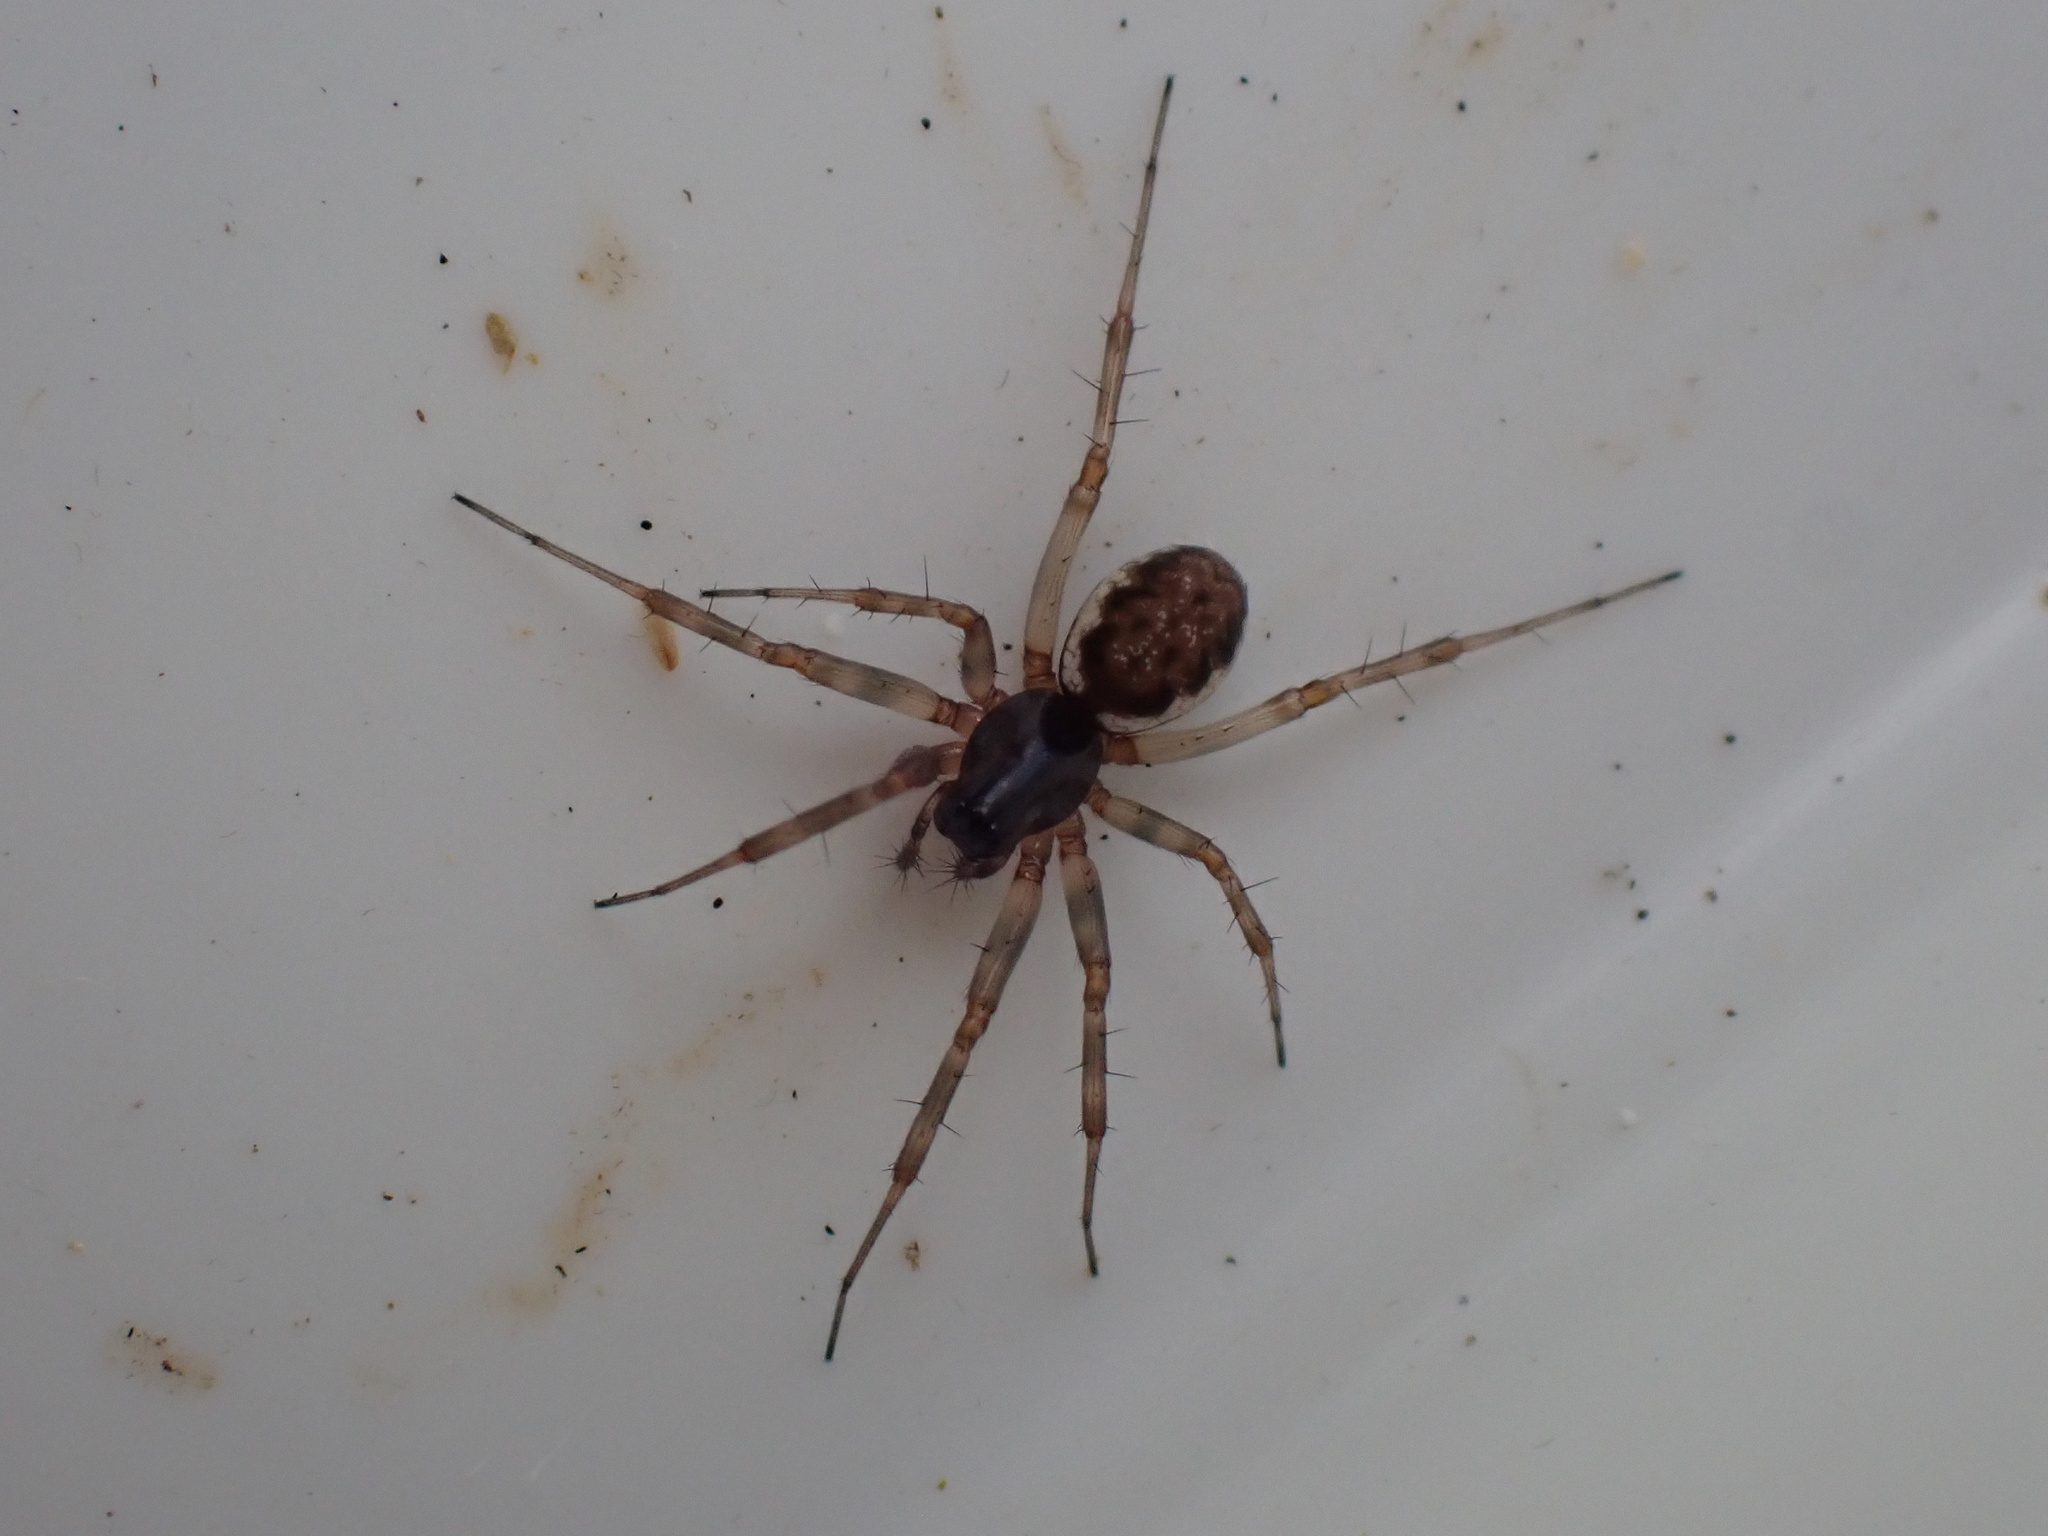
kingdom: Animalia
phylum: Arthropoda
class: Arachnida
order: Araneae
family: Linyphiidae
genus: Neriene
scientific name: Neriene montana
